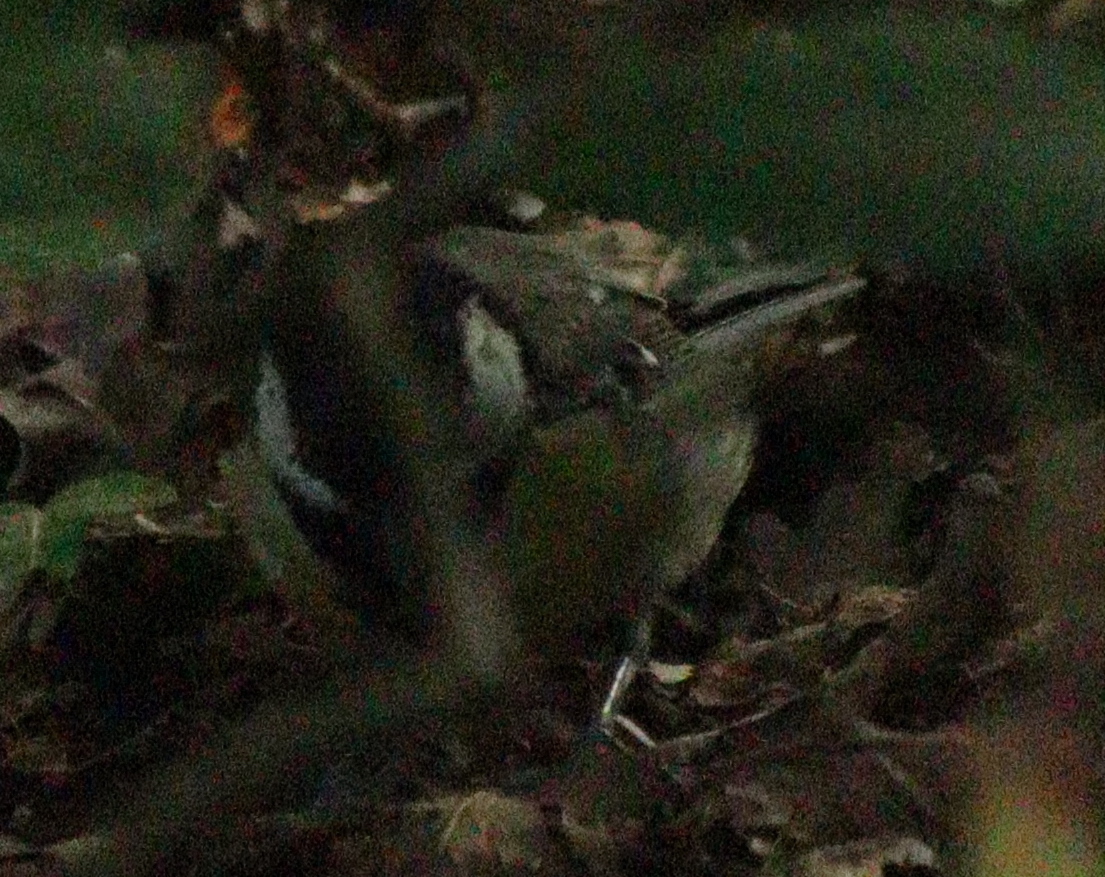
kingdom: Animalia
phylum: Chordata
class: Aves
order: Passeriformes
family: Paridae
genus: Parus
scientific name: Parus major
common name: Great tit
